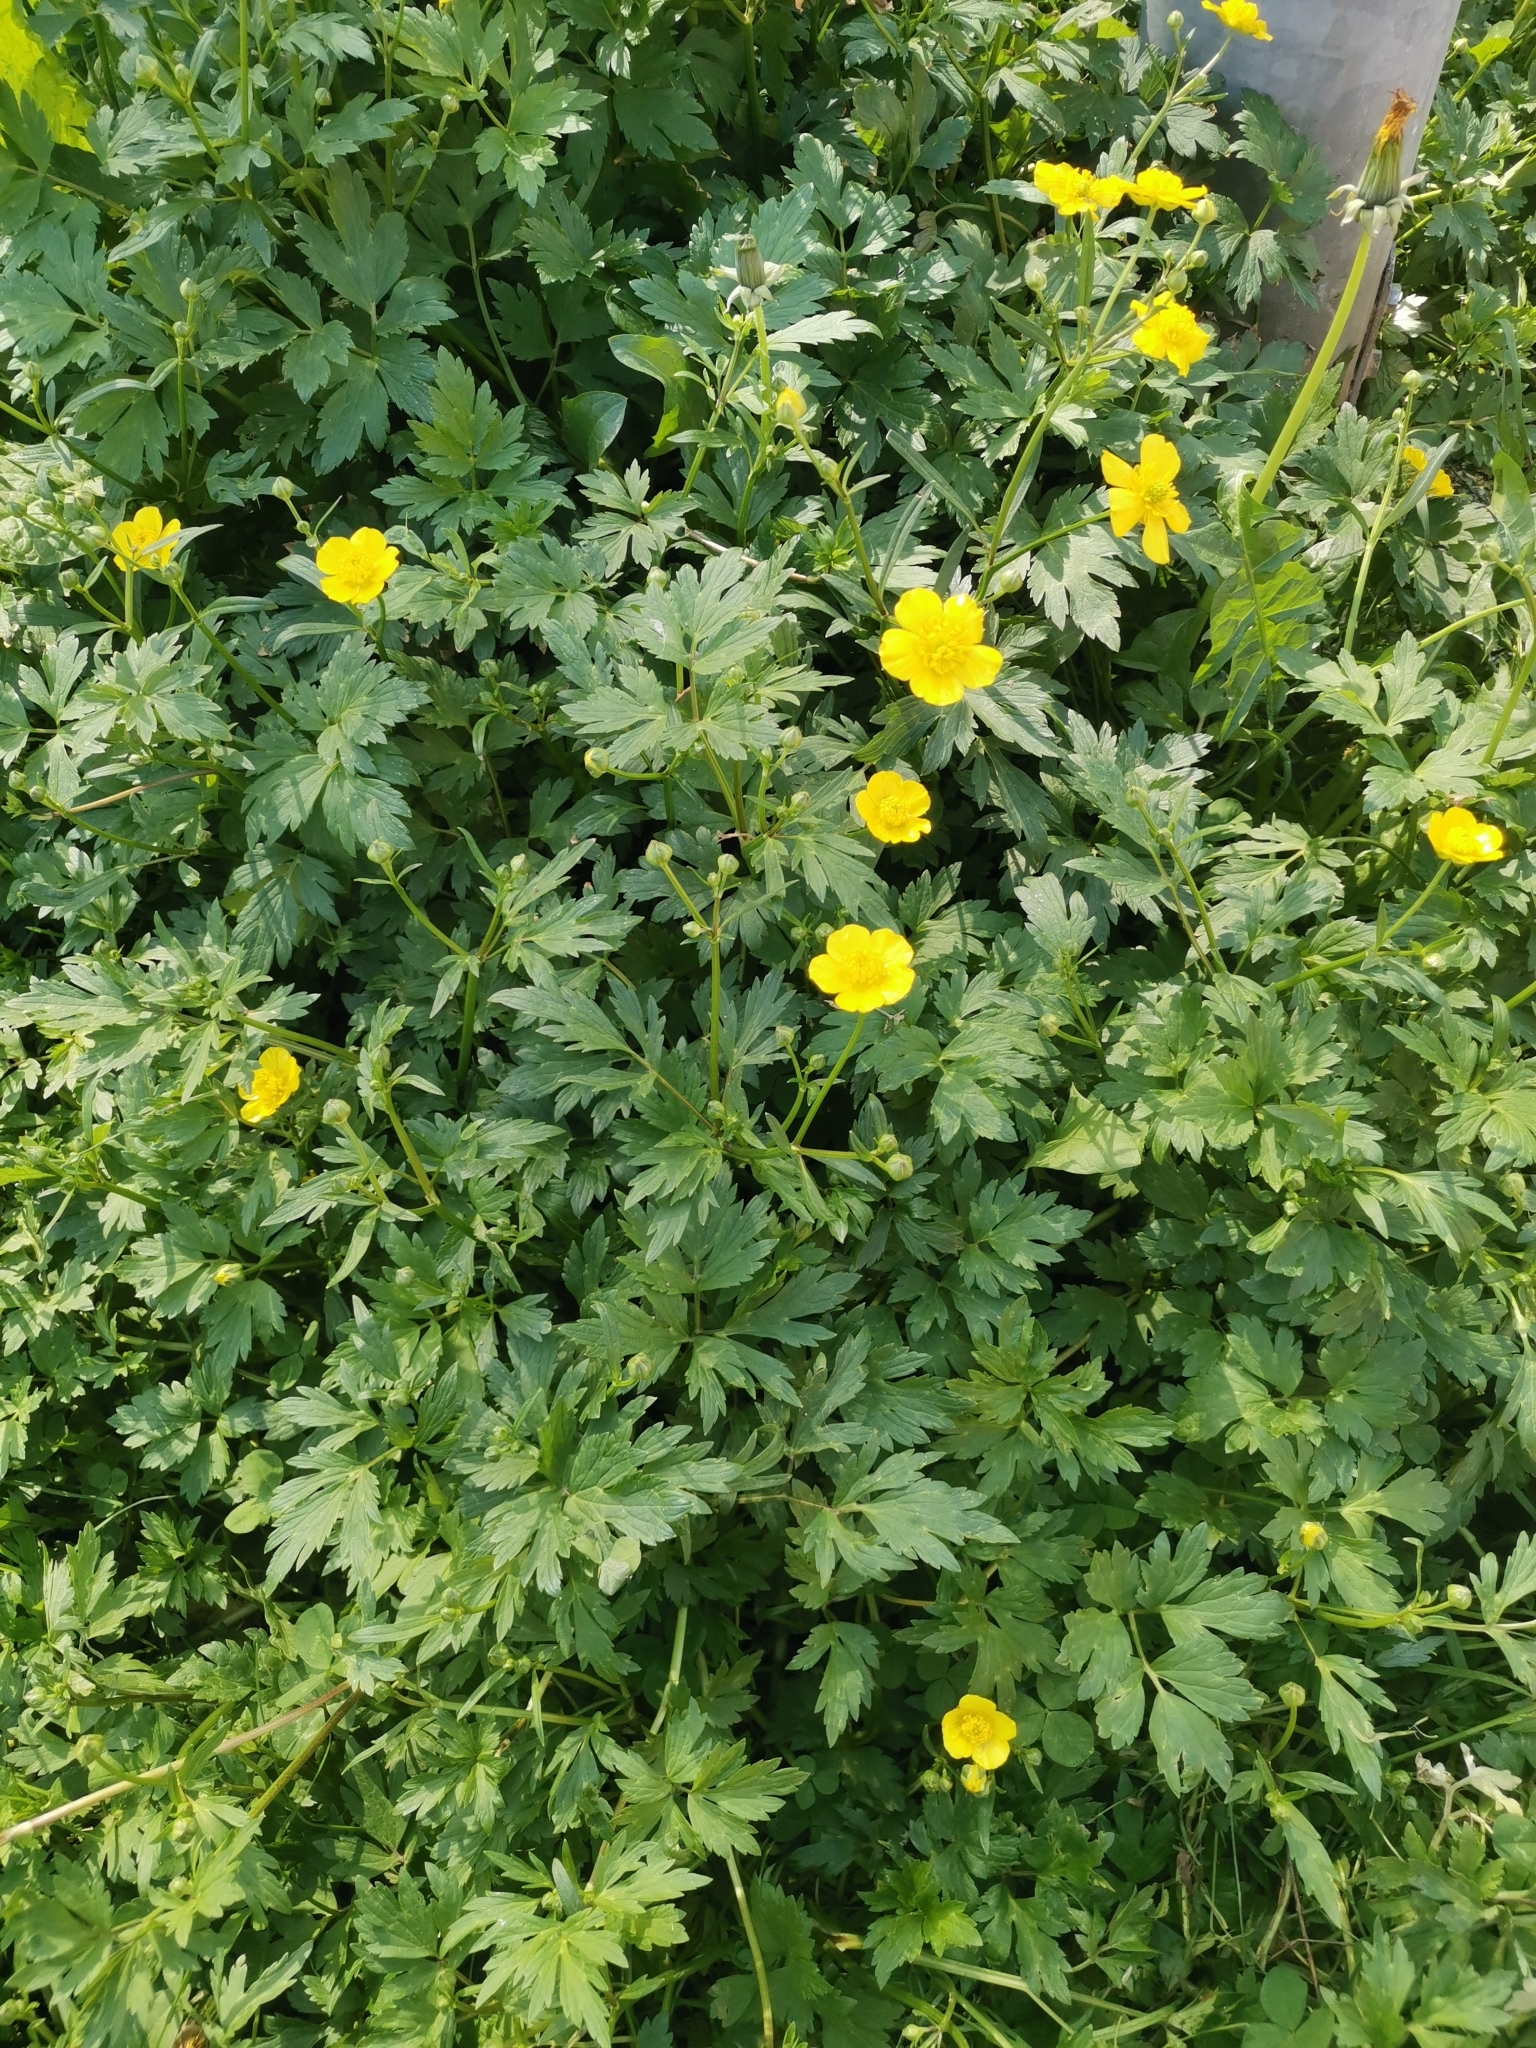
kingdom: Plantae
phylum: Tracheophyta
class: Magnoliopsida
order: Ranunculales
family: Ranunculaceae
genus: Ranunculus
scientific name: Ranunculus repens
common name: Creeping buttercup
